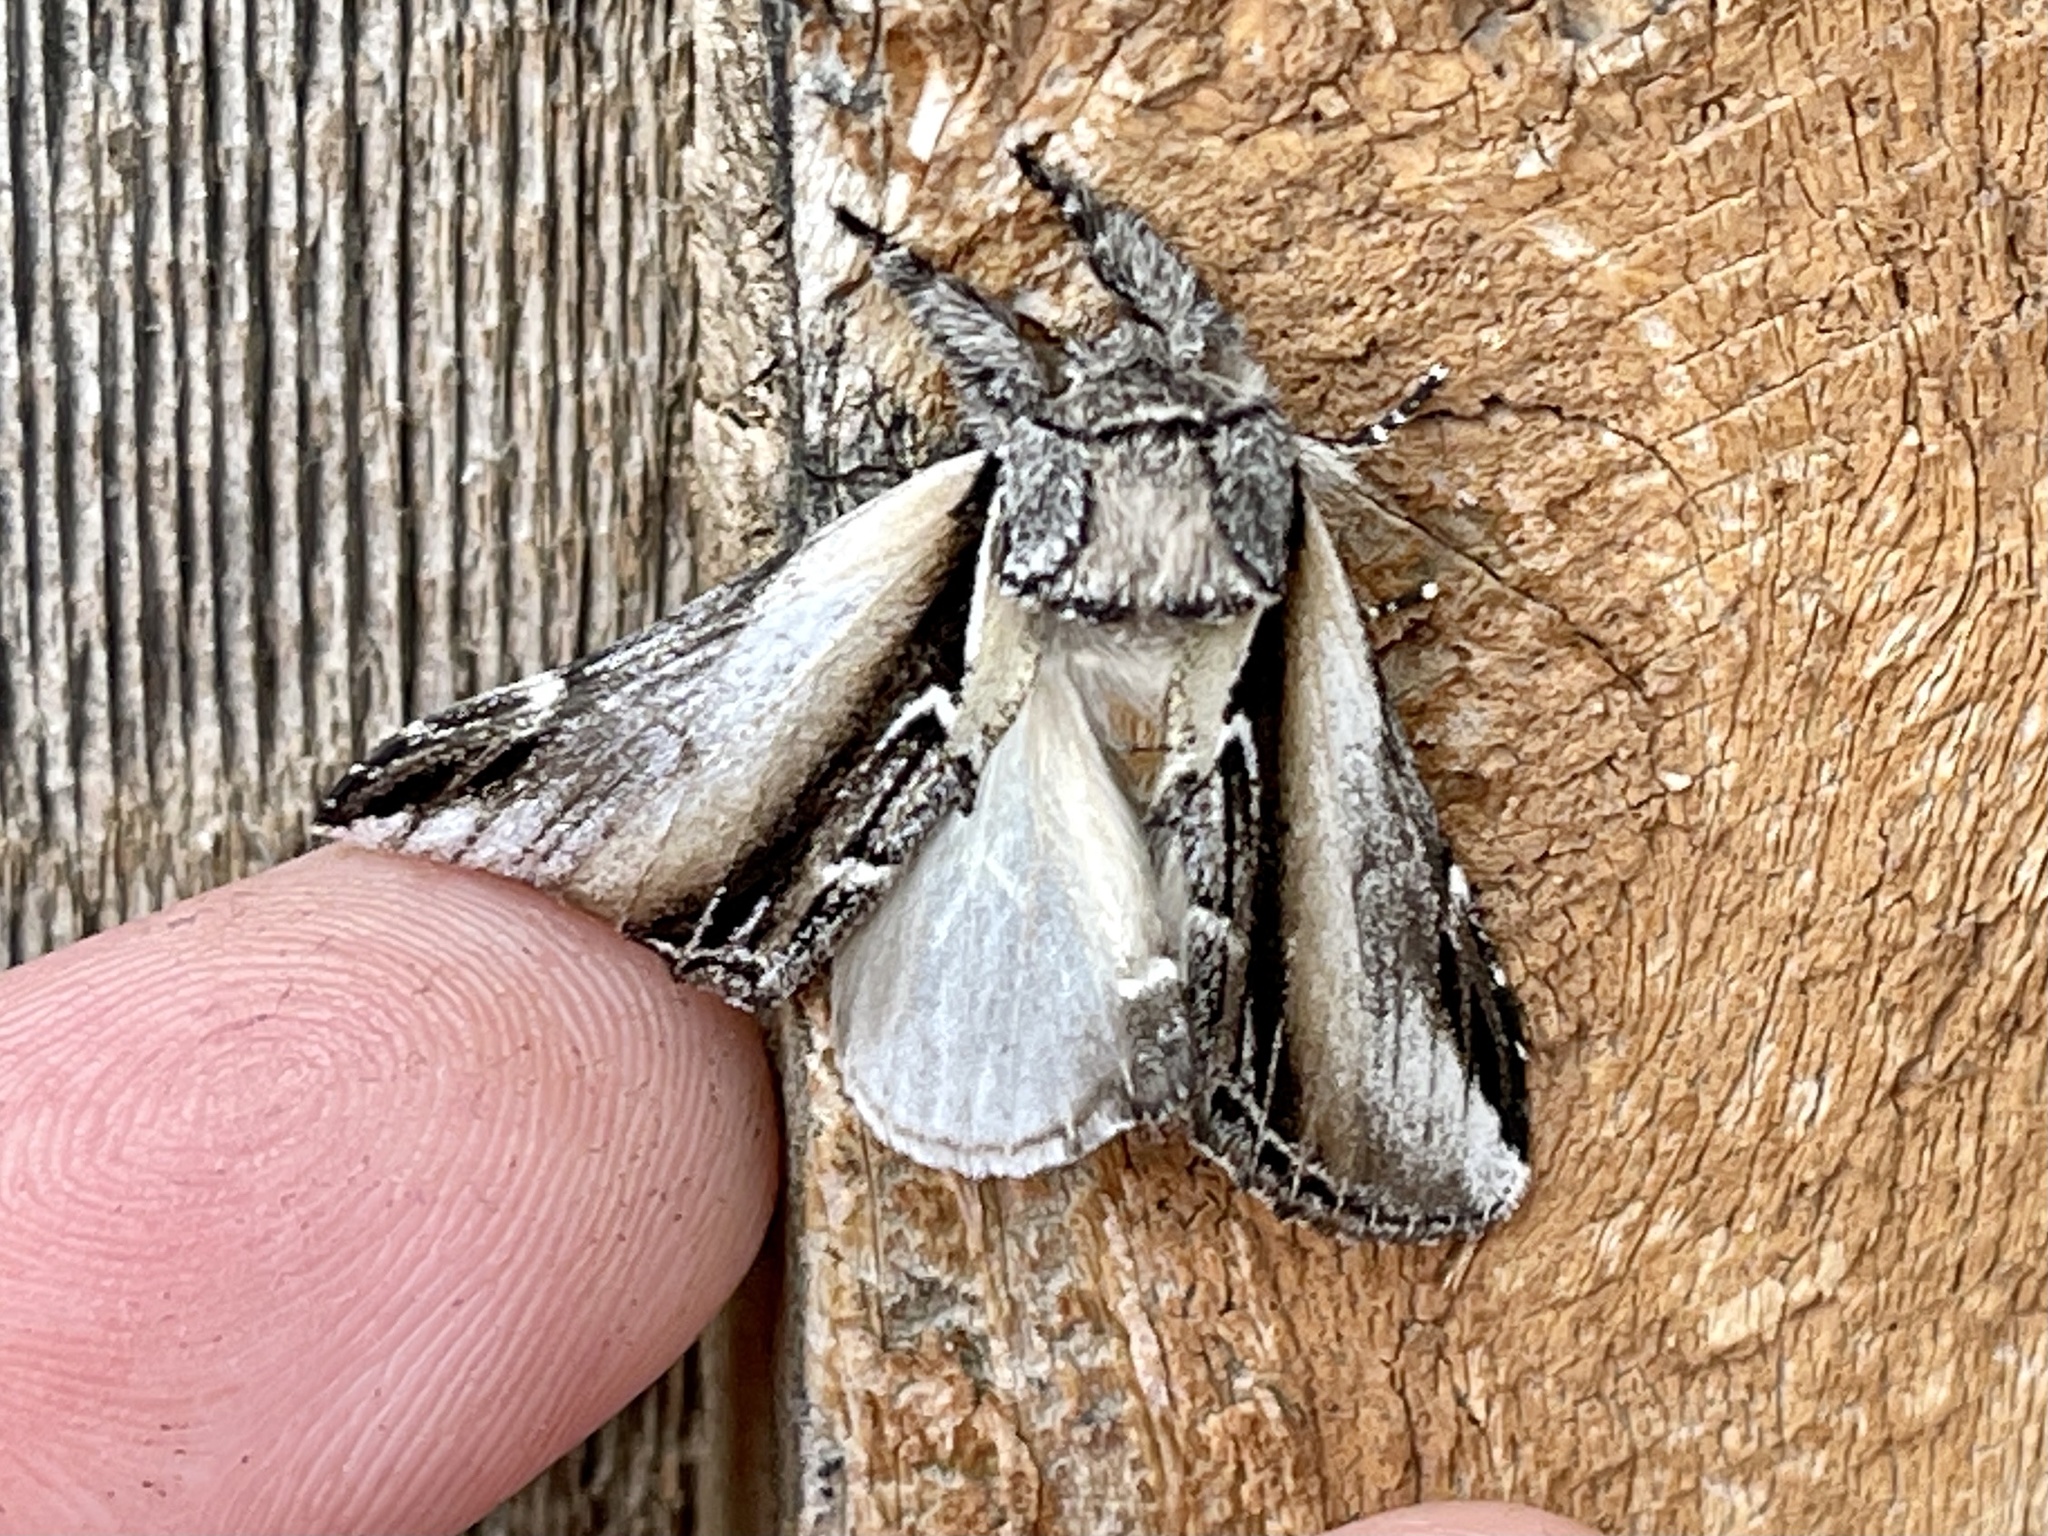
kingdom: Animalia
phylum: Arthropoda
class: Insecta
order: Lepidoptera
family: Notodontidae
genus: Pheosia
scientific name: Pheosia rimosa
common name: Black-rimmed prominent
